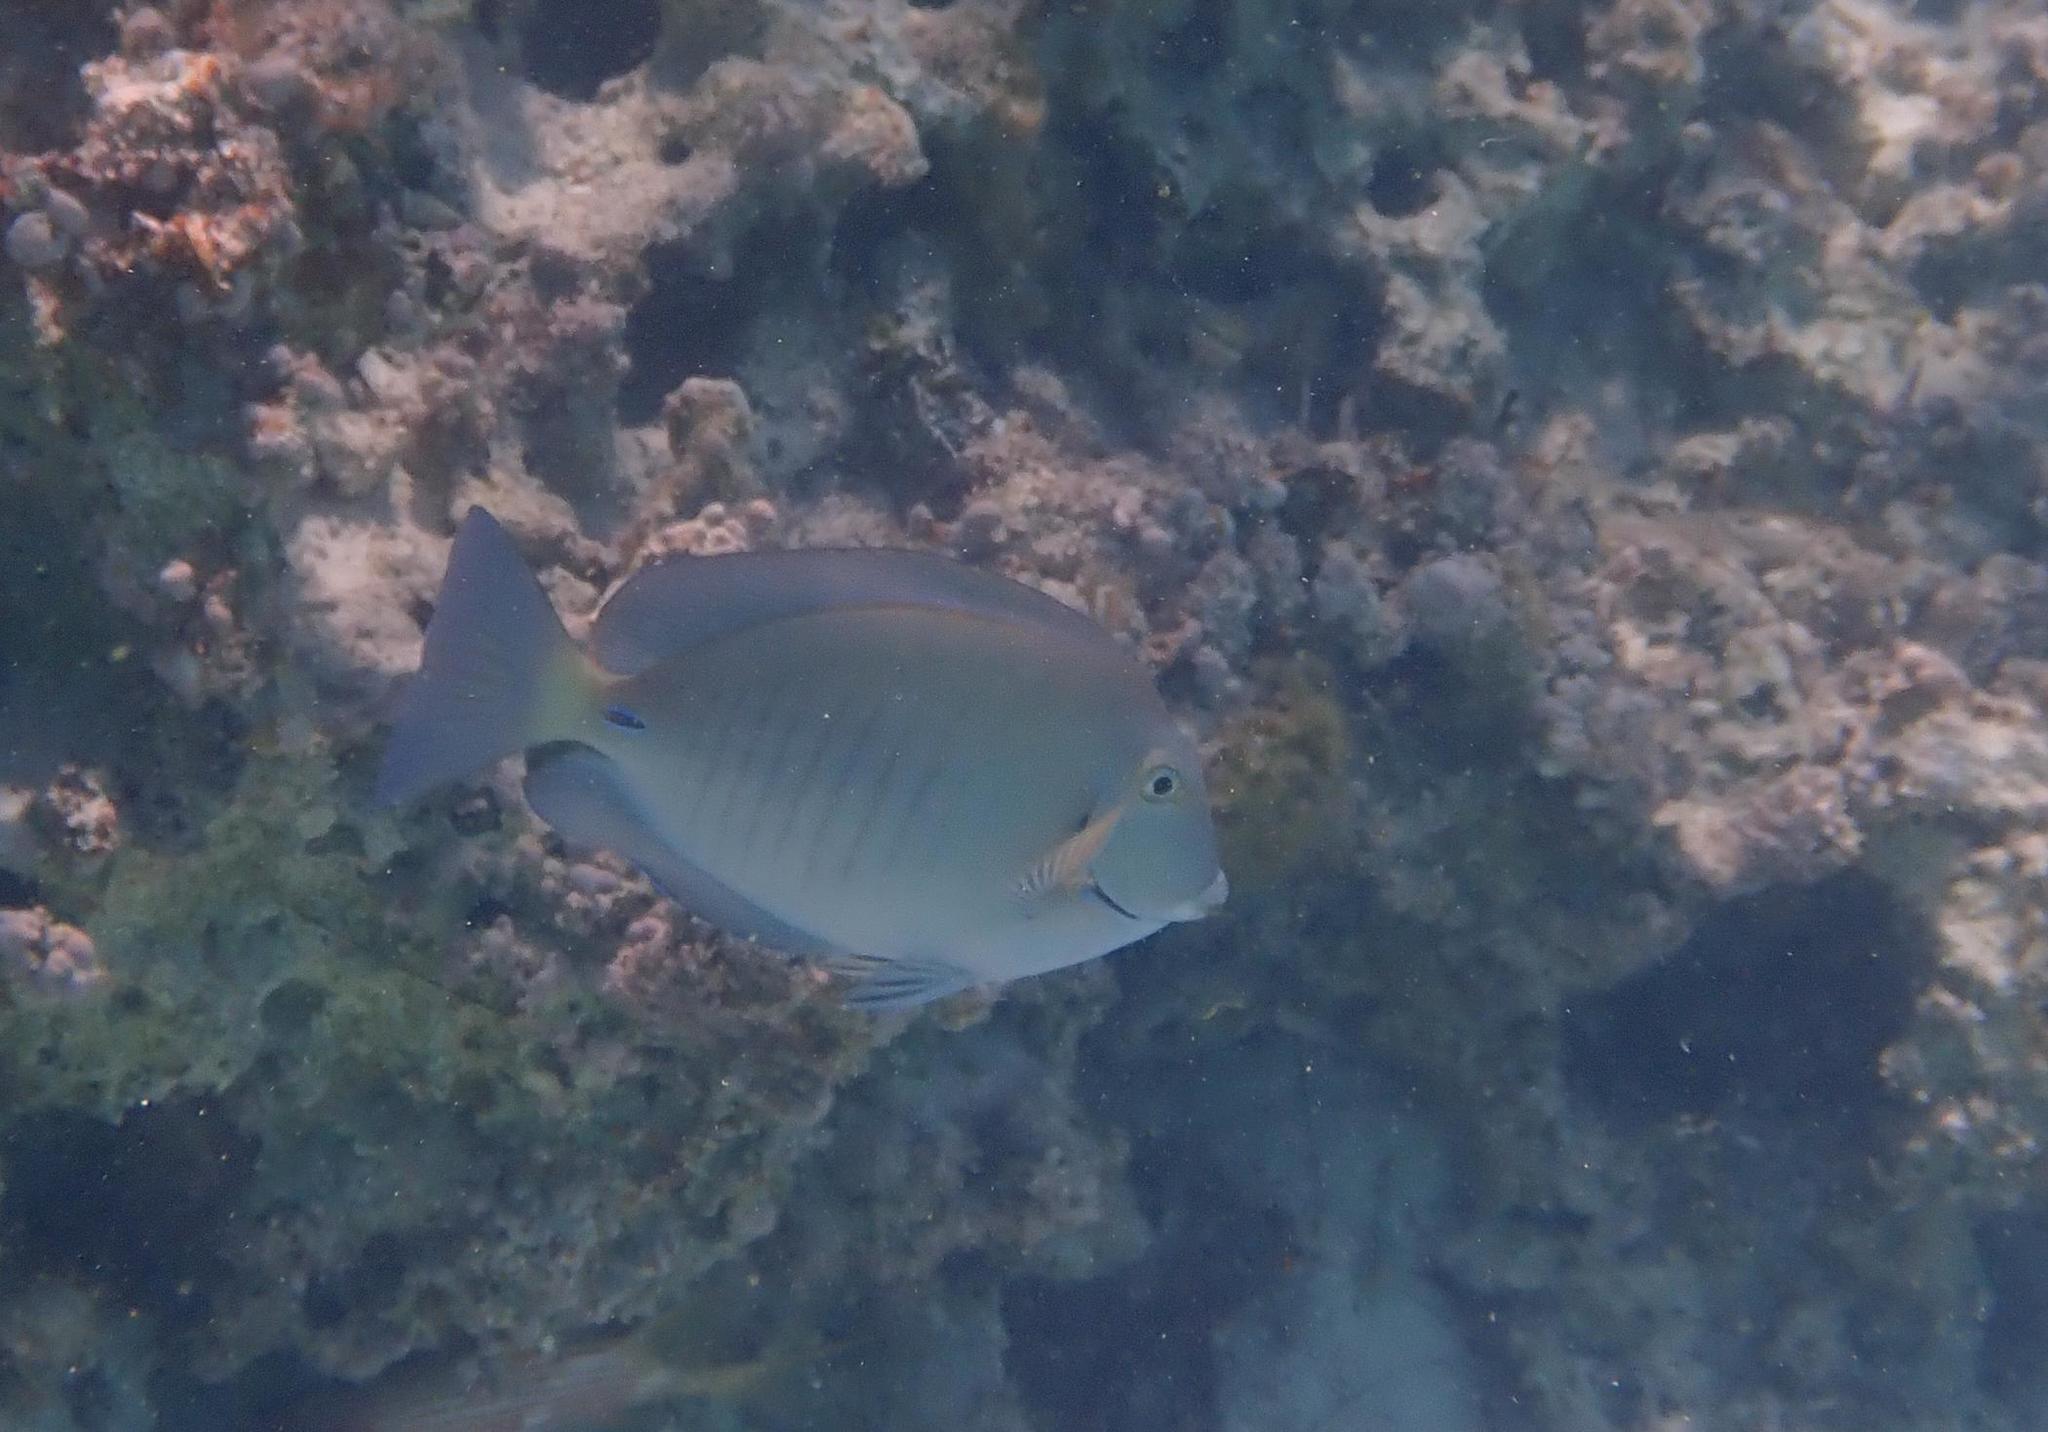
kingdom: Animalia
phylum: Chordata
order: Perciformes
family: Acanthuridae
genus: Acanthurus
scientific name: Acanthurus chirurgus
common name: Doctorfish
